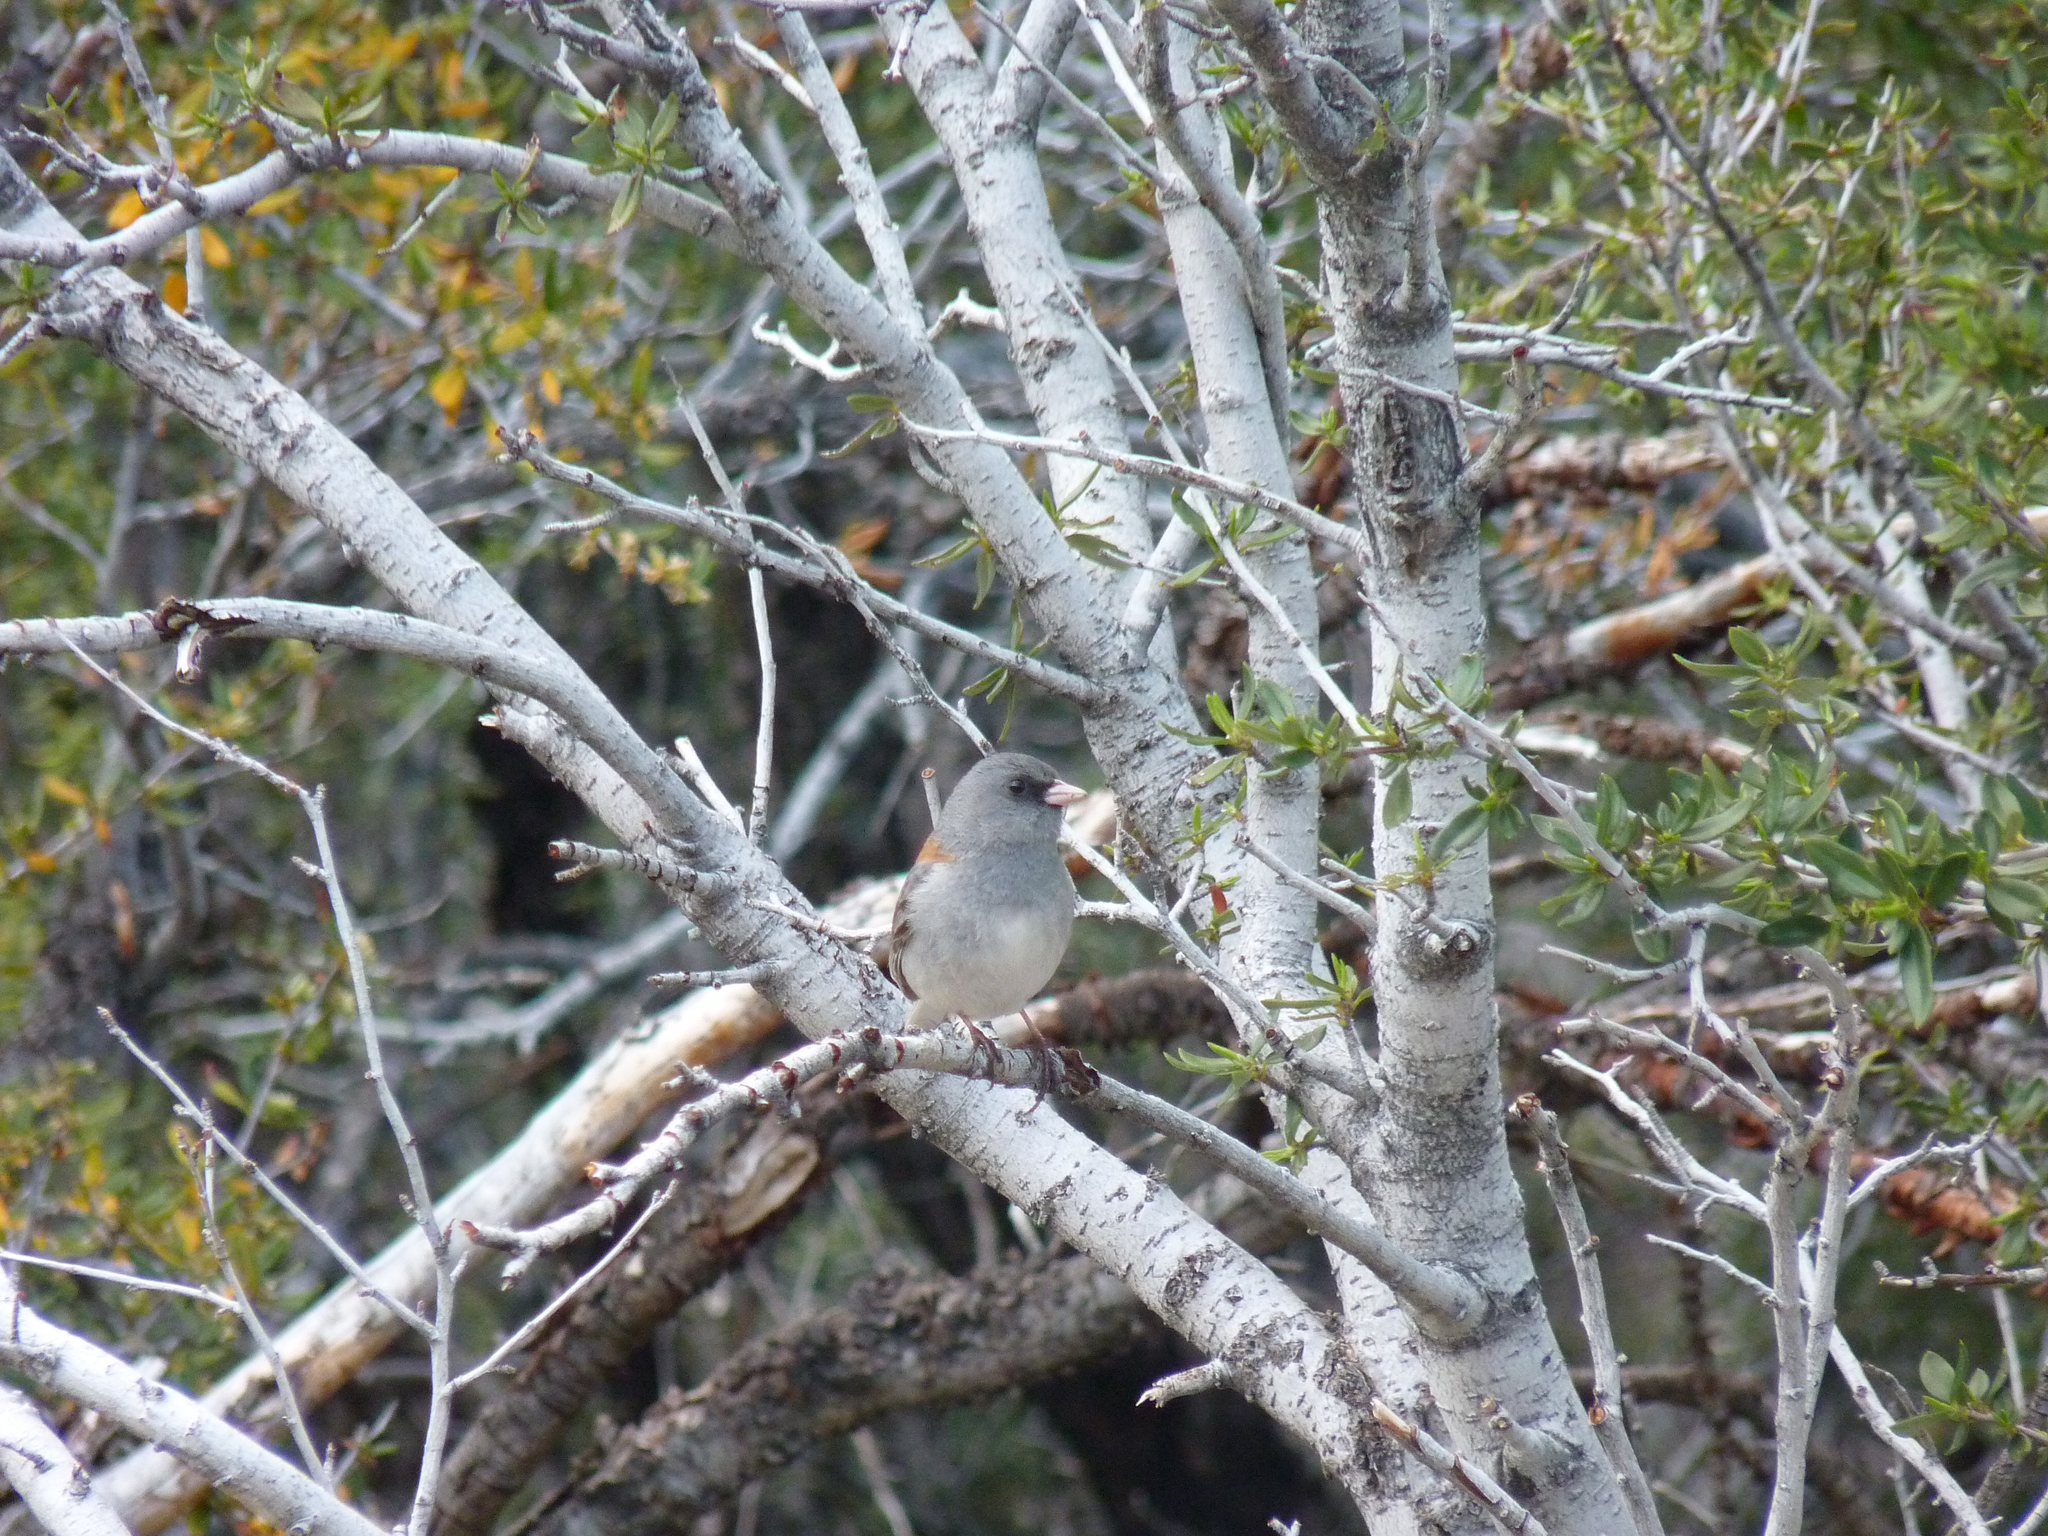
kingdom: Animalia
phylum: Chordata
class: Aves
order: Passeriformes
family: Passerellidae
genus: Junco
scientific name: Junco hyemalis
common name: Dark-eyed junco
